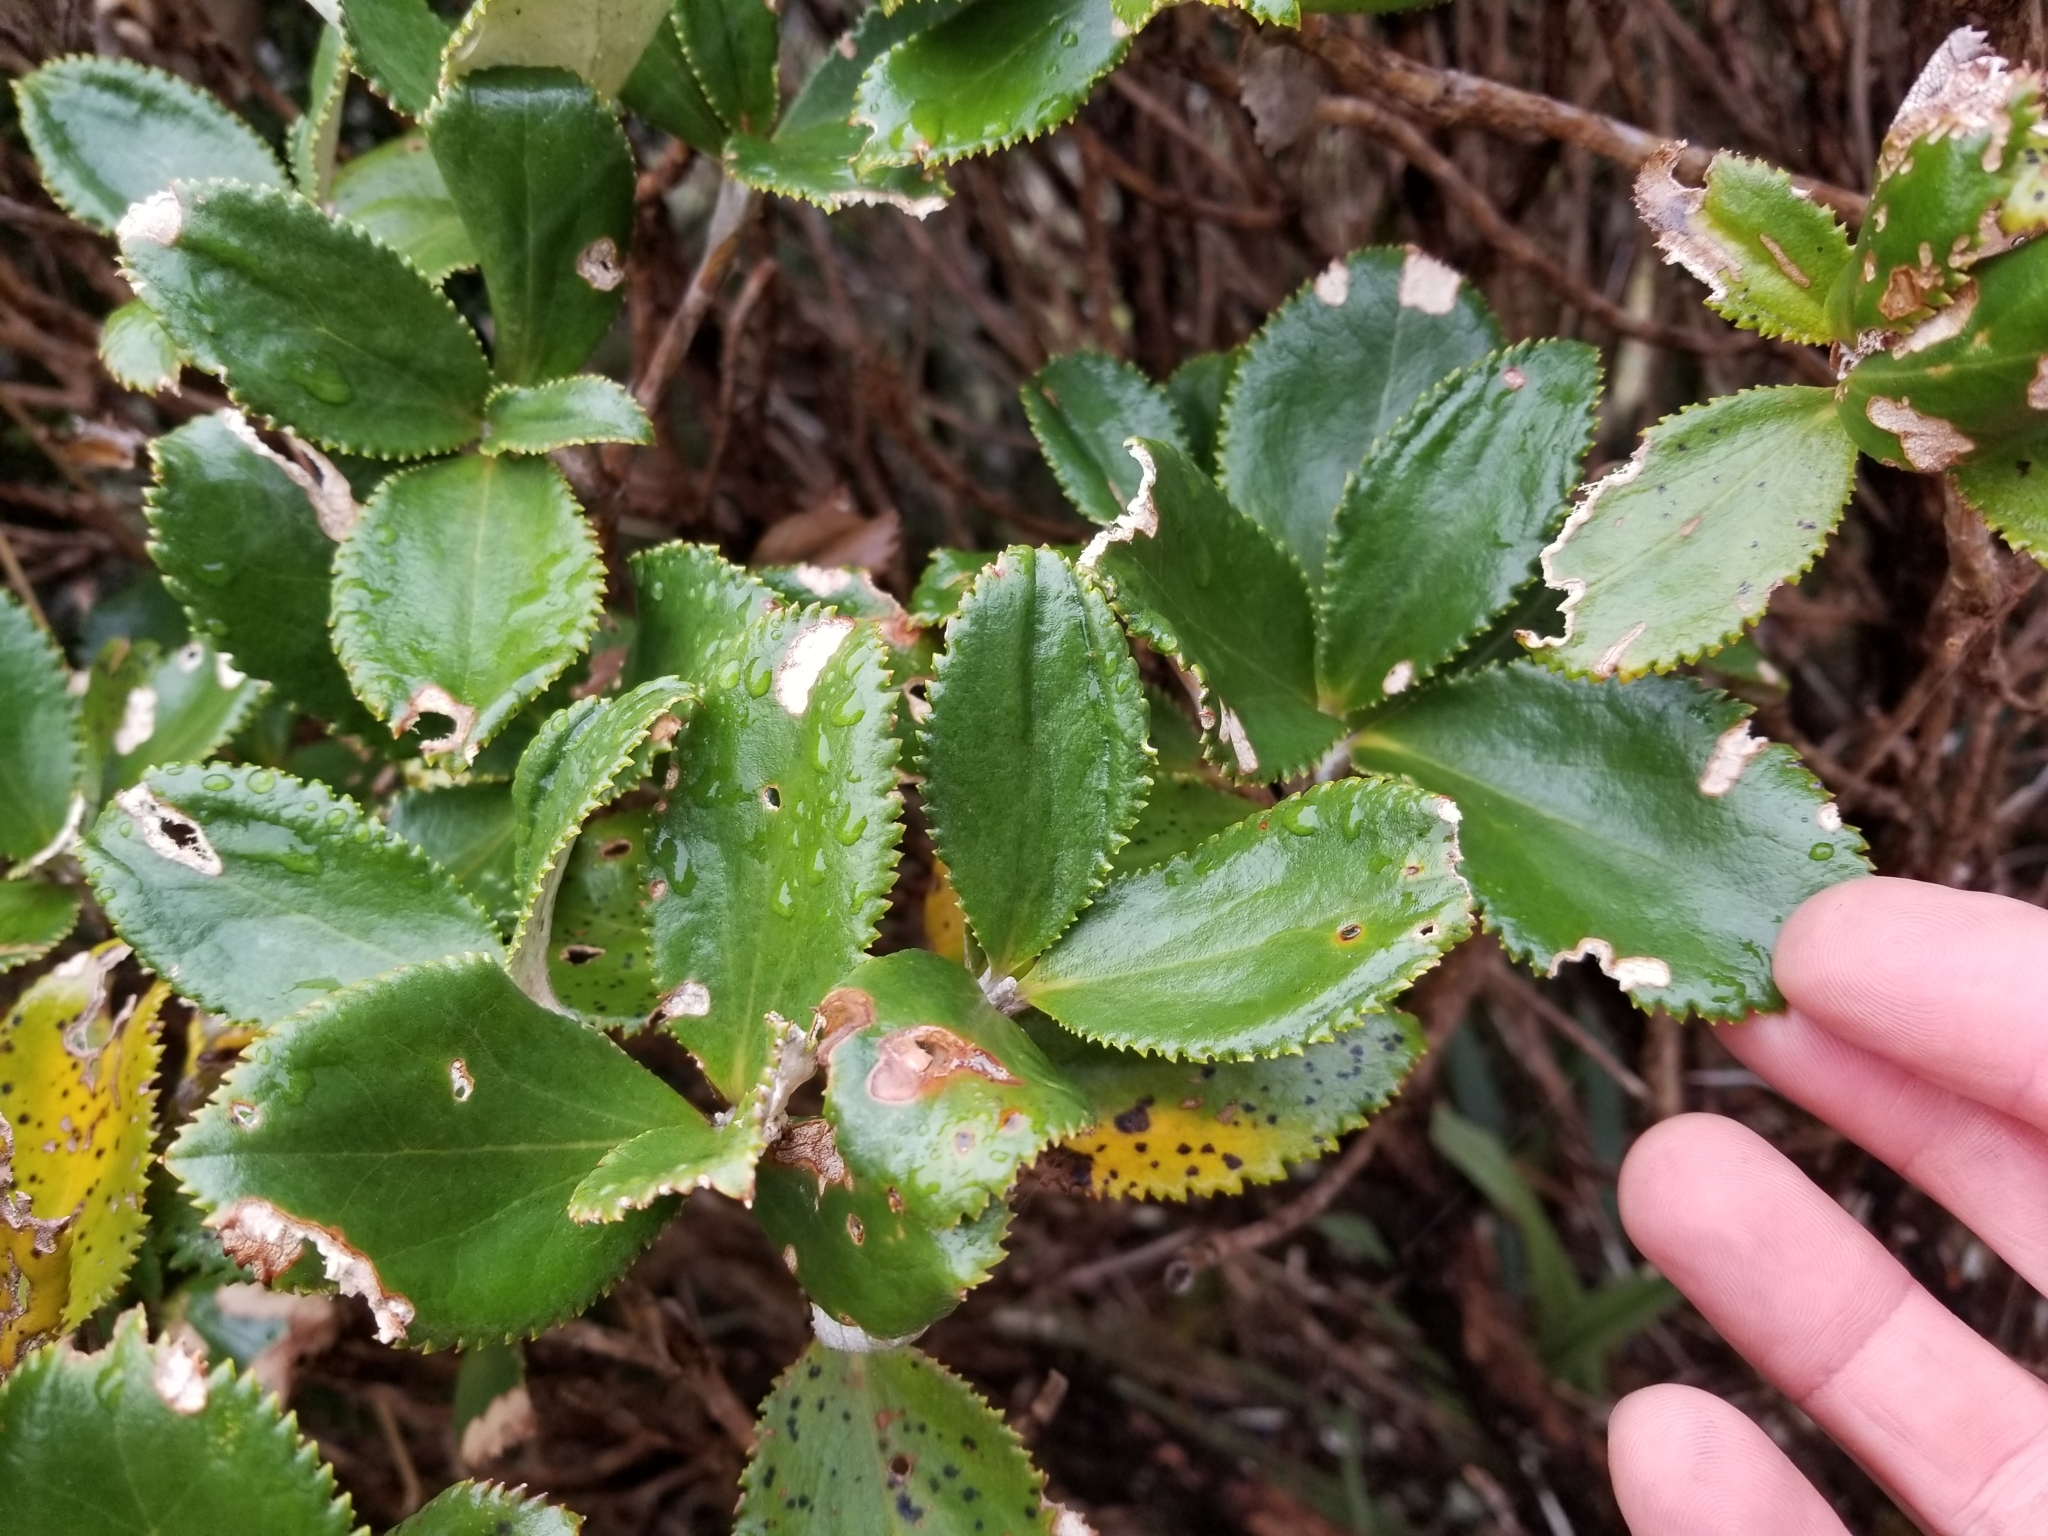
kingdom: Plantae
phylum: Tracheophyta
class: Magnoliopsida
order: Asterales
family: Asteraceae
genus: Macrolearia
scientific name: Macrolearia colensoi
